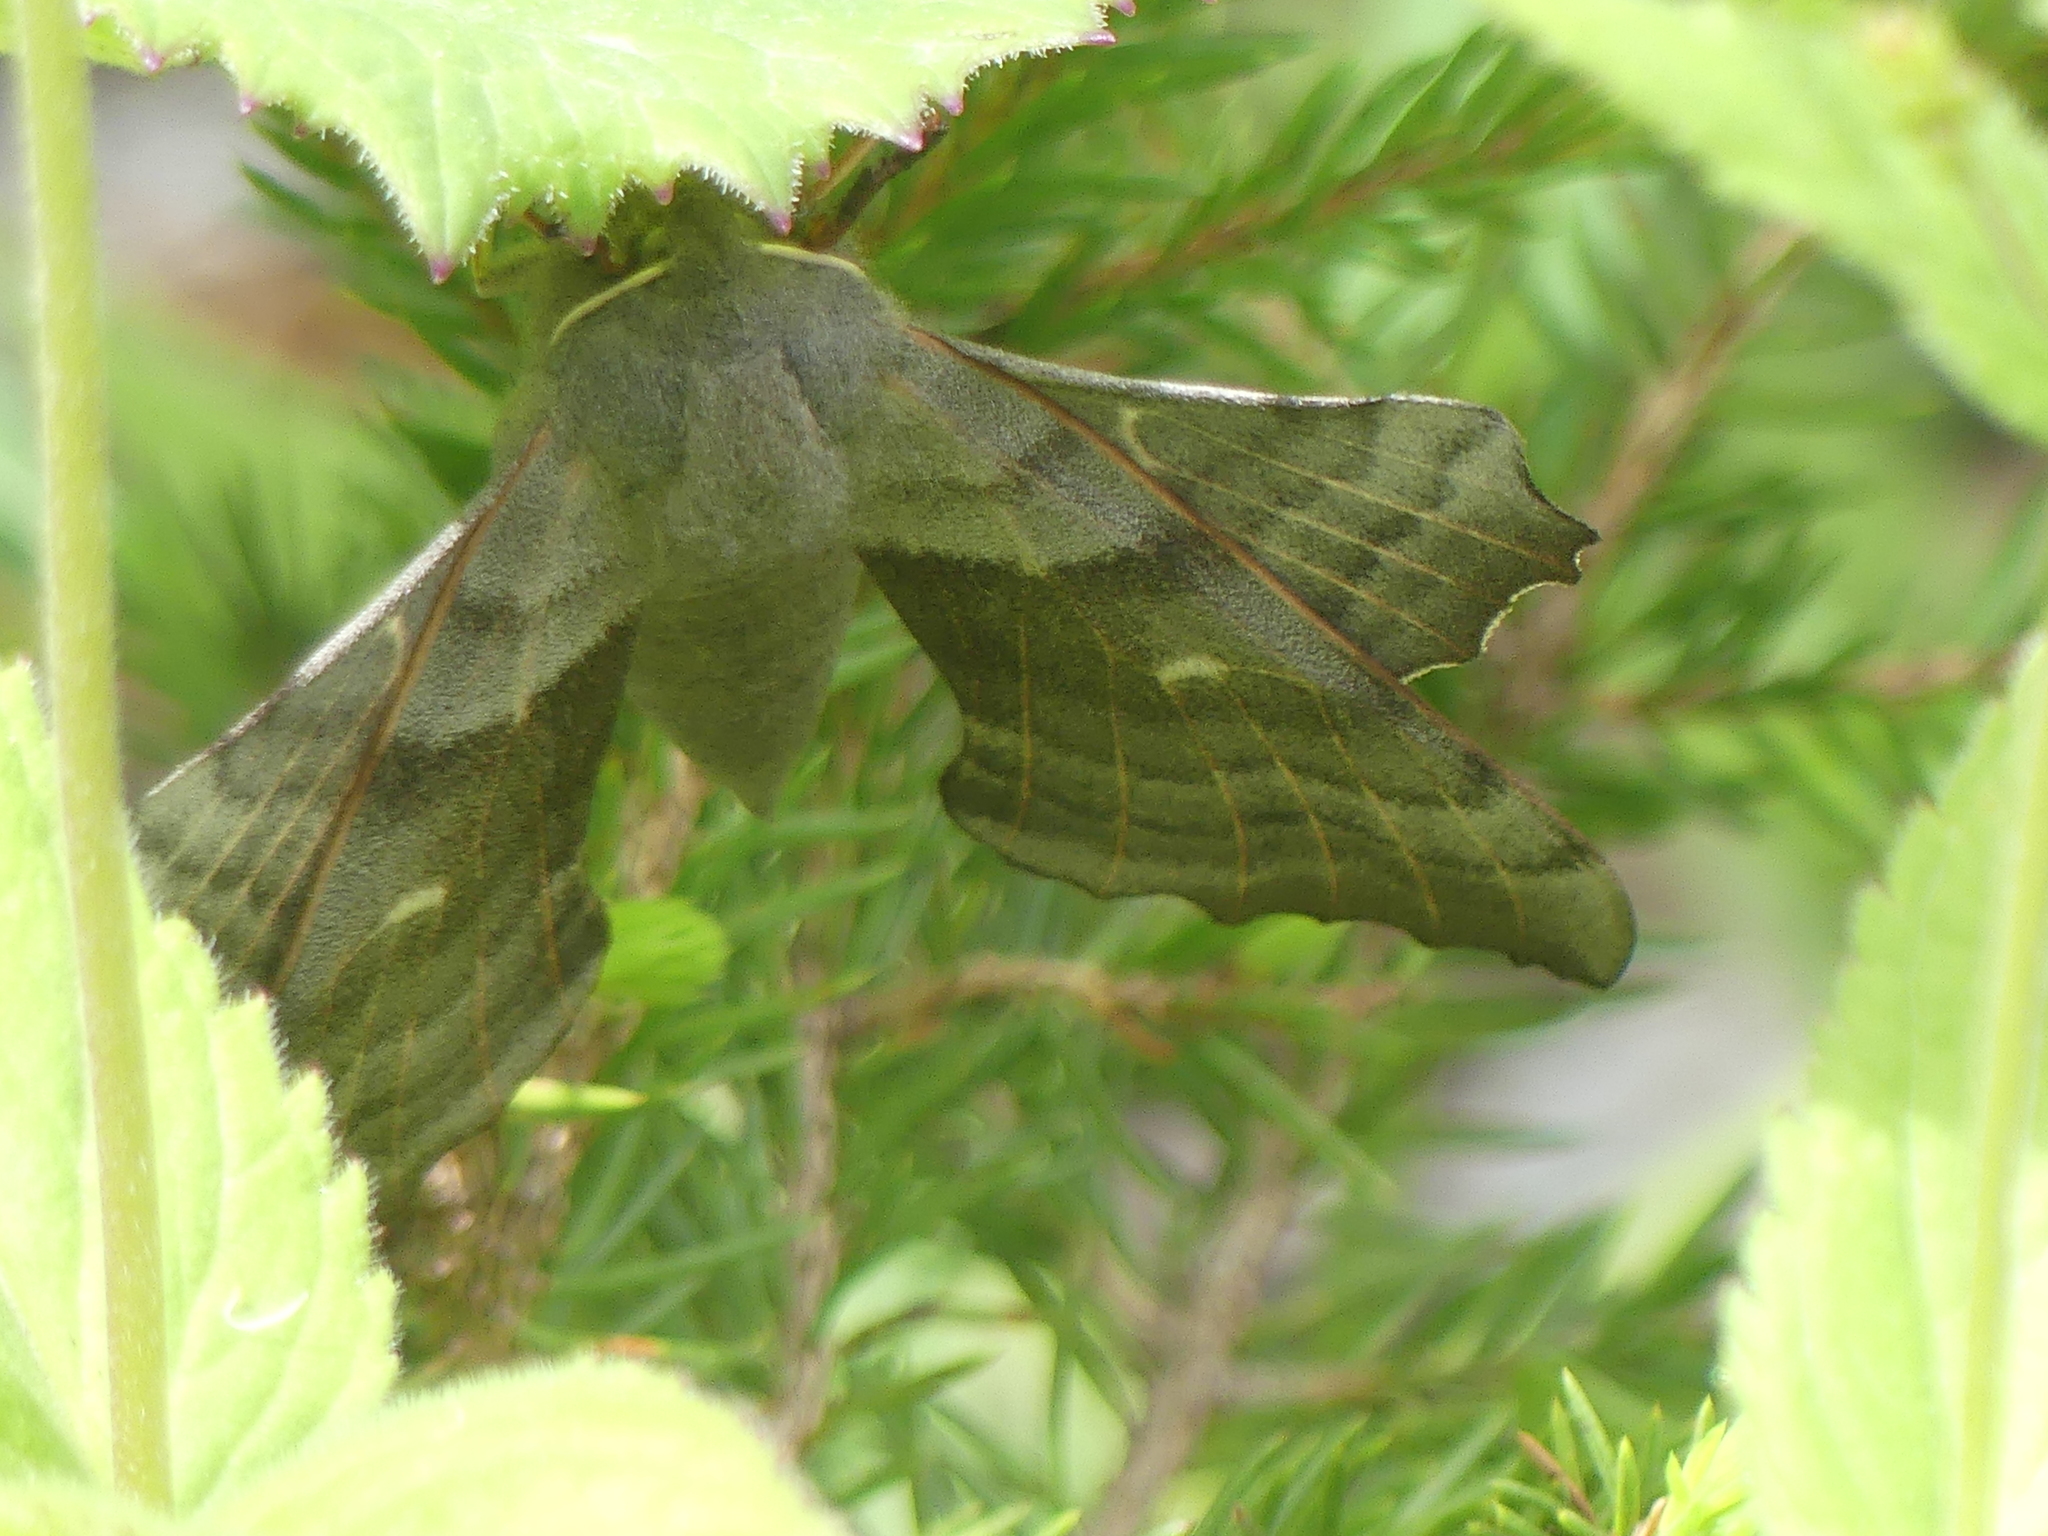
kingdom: Animalia
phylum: Arthropoda
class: Insecta
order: Lepidoptera
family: Sphingidae
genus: Laothoe
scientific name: Laothoe populi
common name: Poplar hawk-moth
